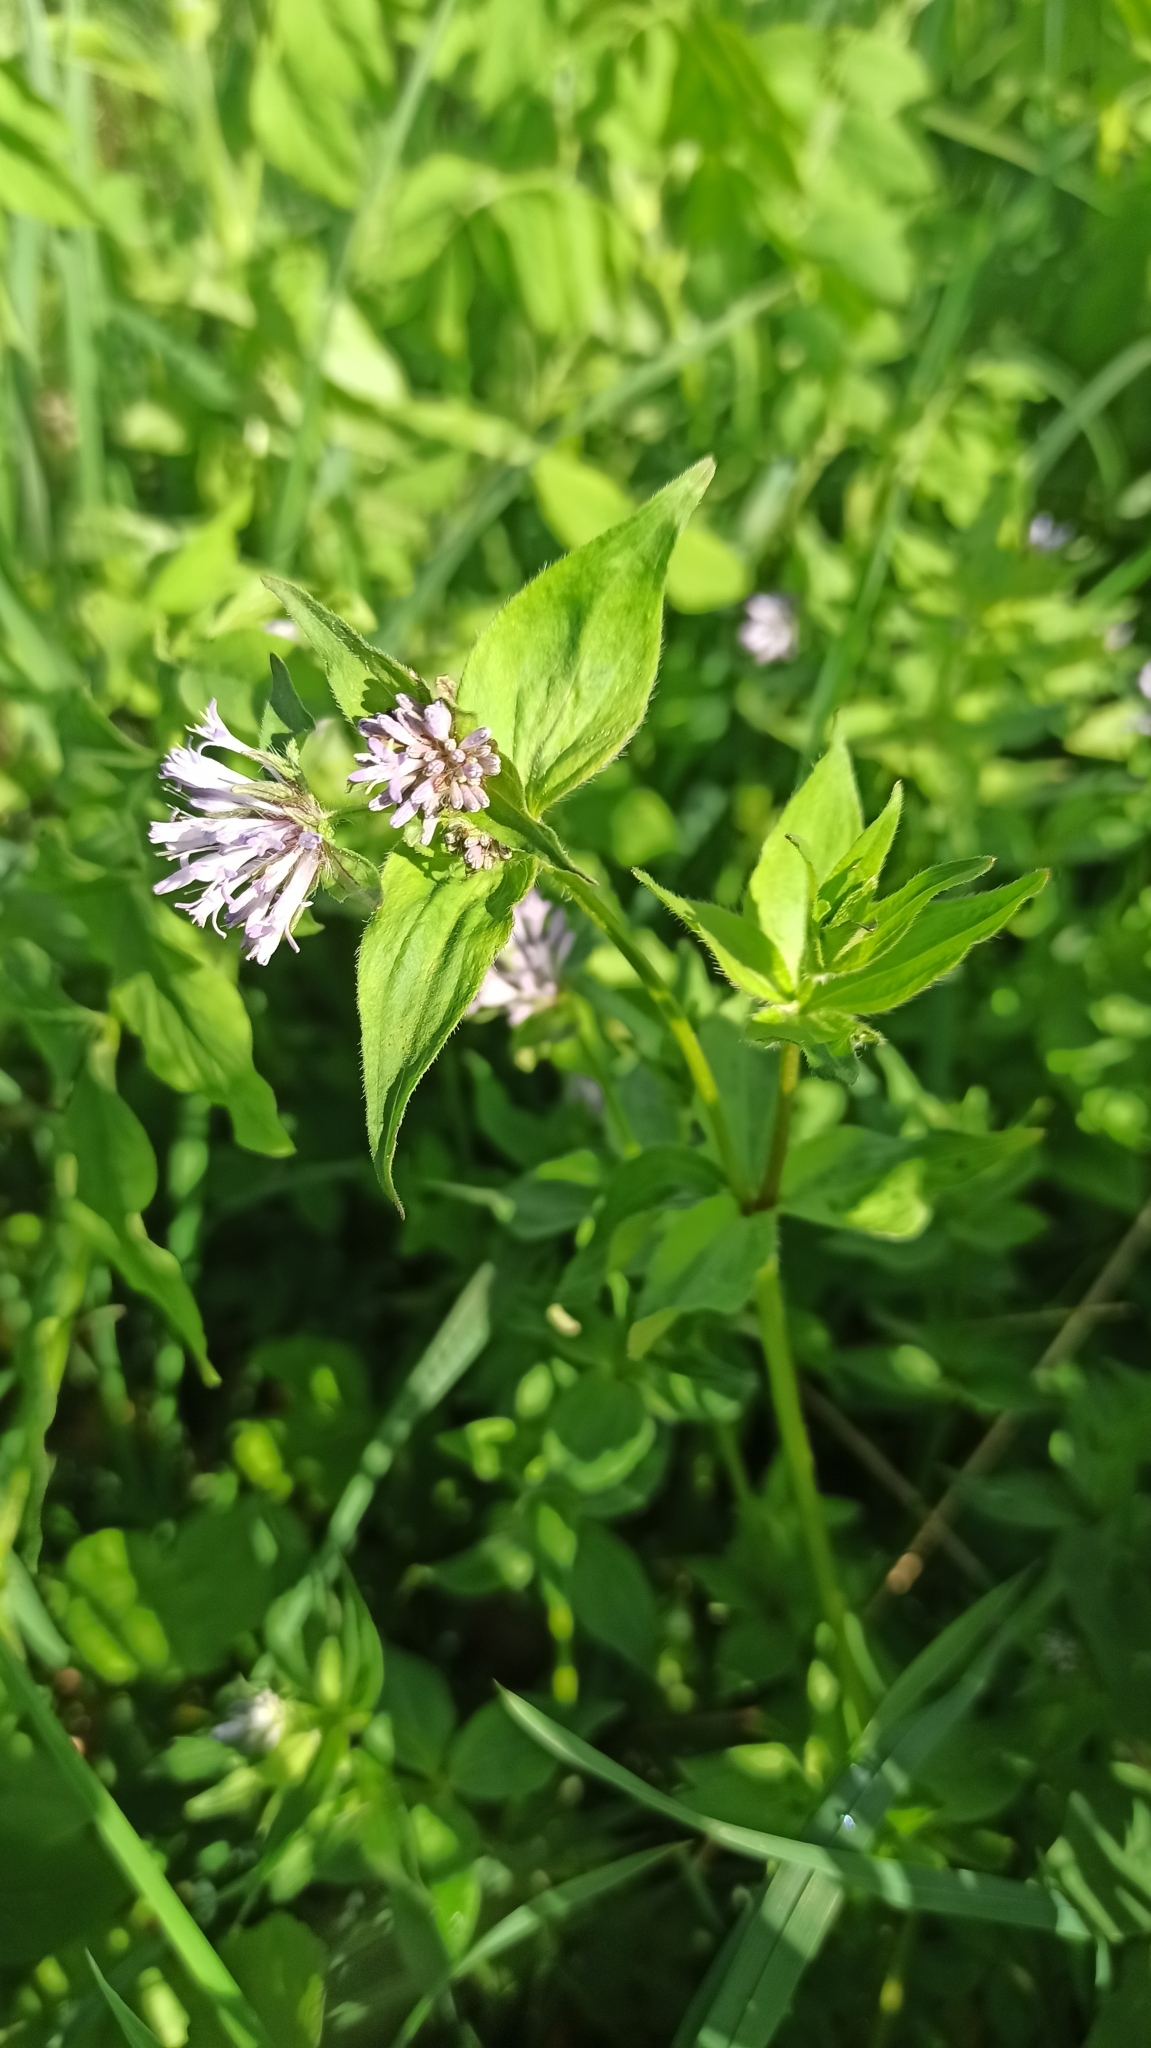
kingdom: Plantae
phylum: Tracheophyta
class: Magnoliopsida
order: Gentianales
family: Rubiaceae
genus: Asperula
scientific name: Asperula taurina
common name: Pink woodruff
